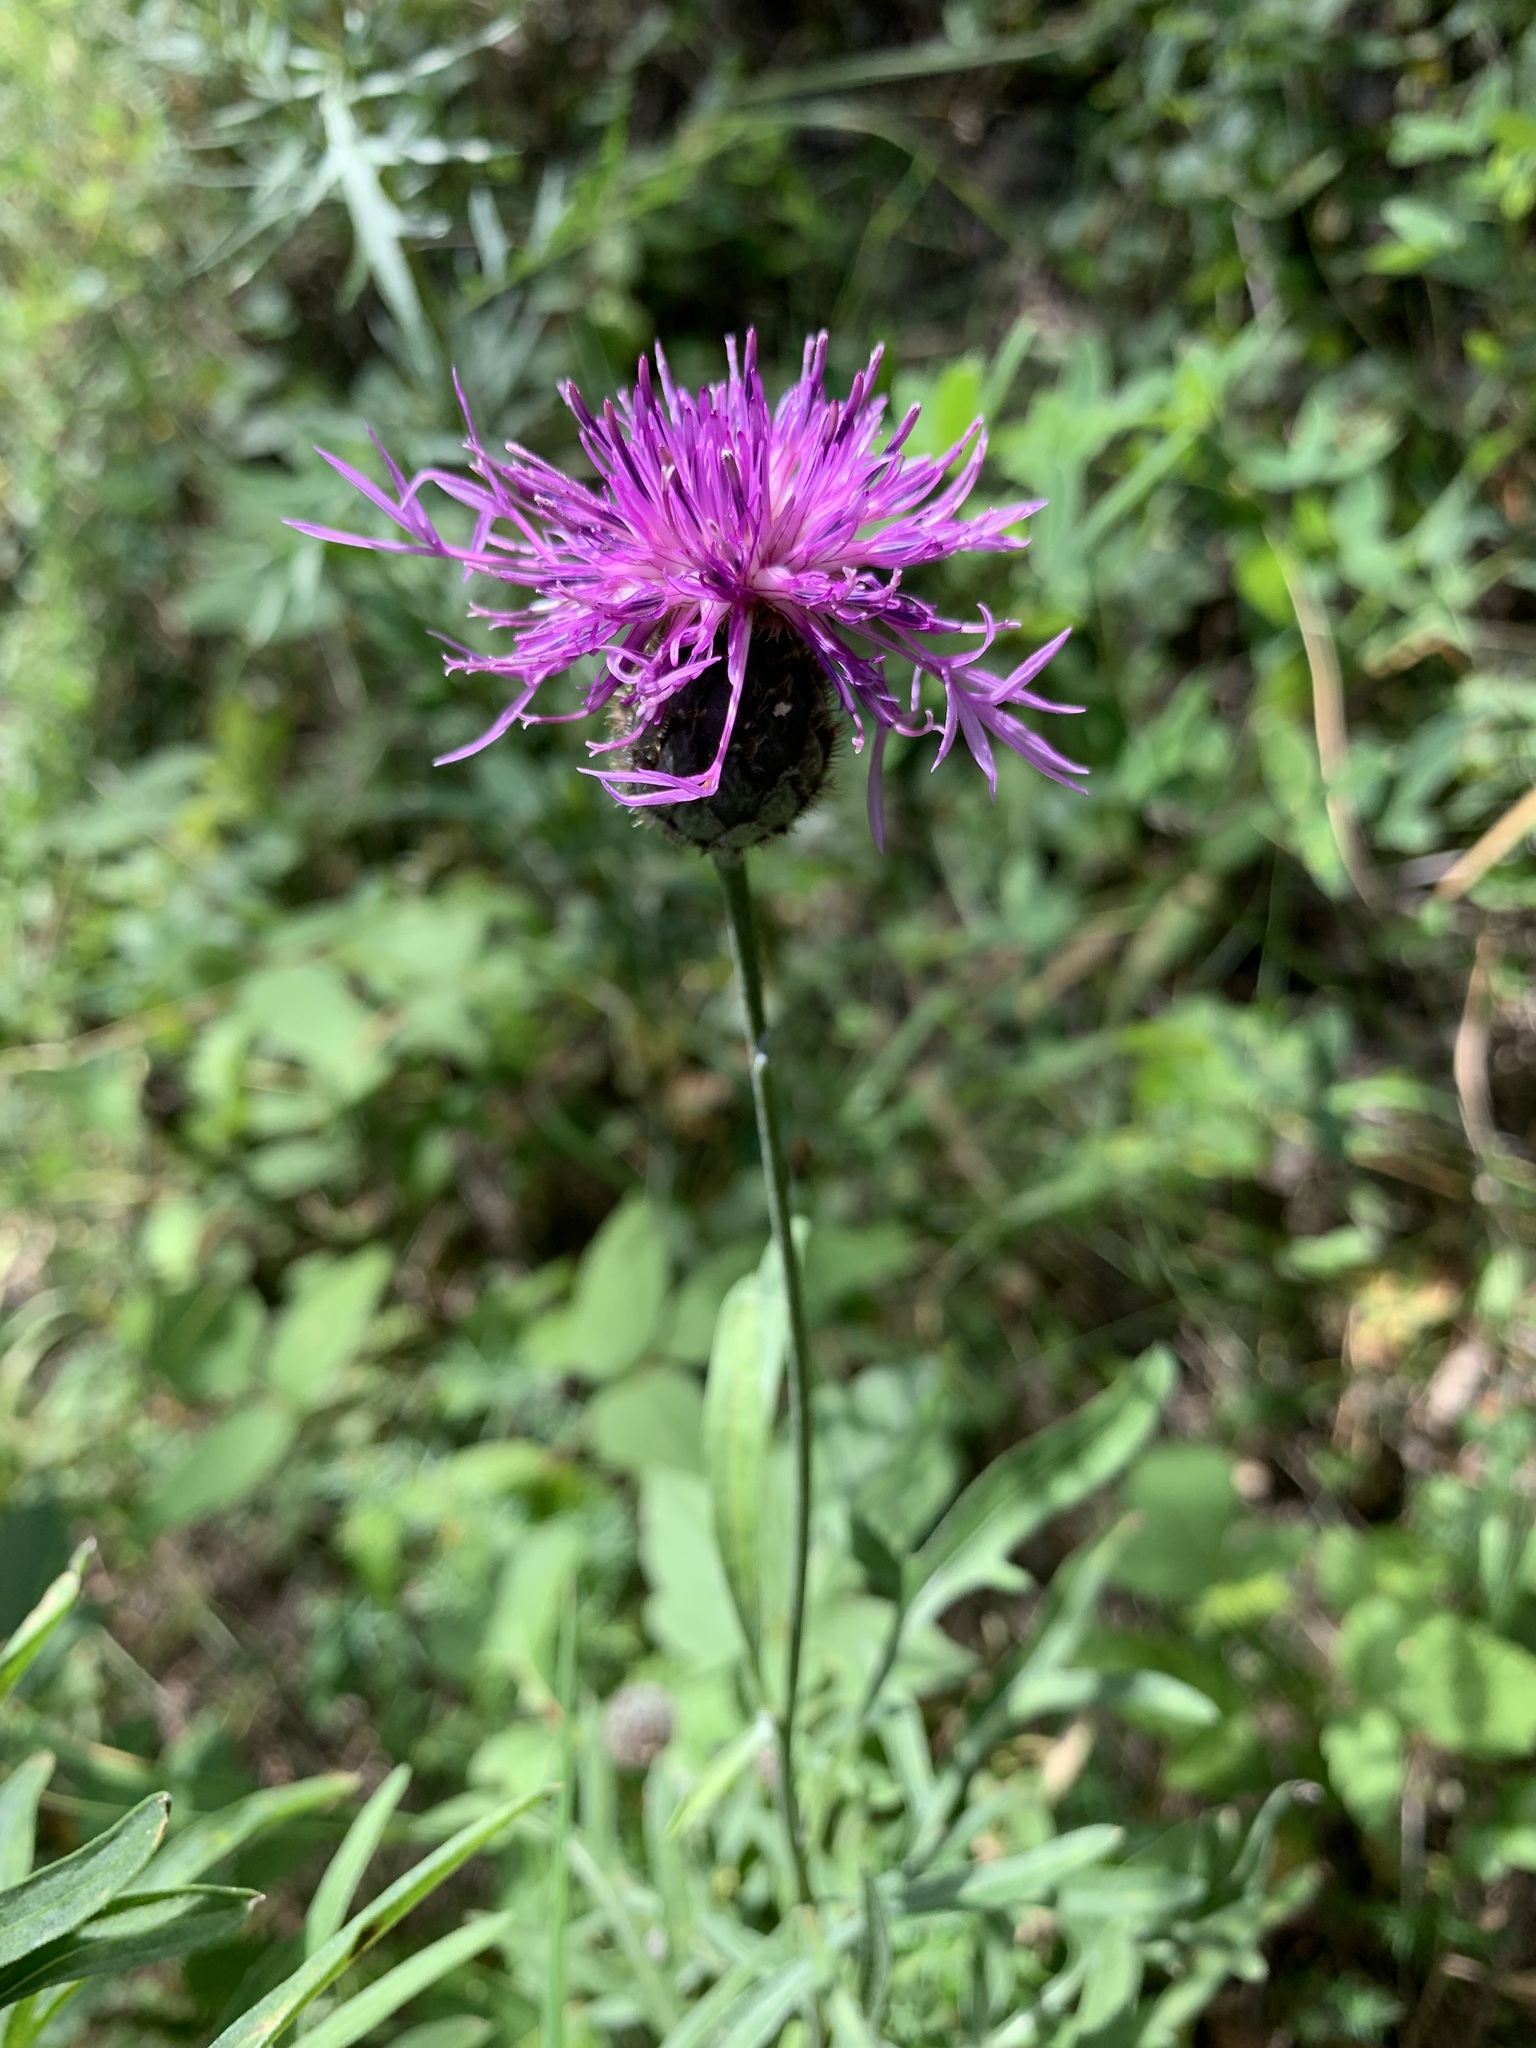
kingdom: Plantae
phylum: Tracheophyta
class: Magnoliopsida
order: Asterales
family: Asteraceae
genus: Centaurea
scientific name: Centaurea scabiosa
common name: Greater knapweed
